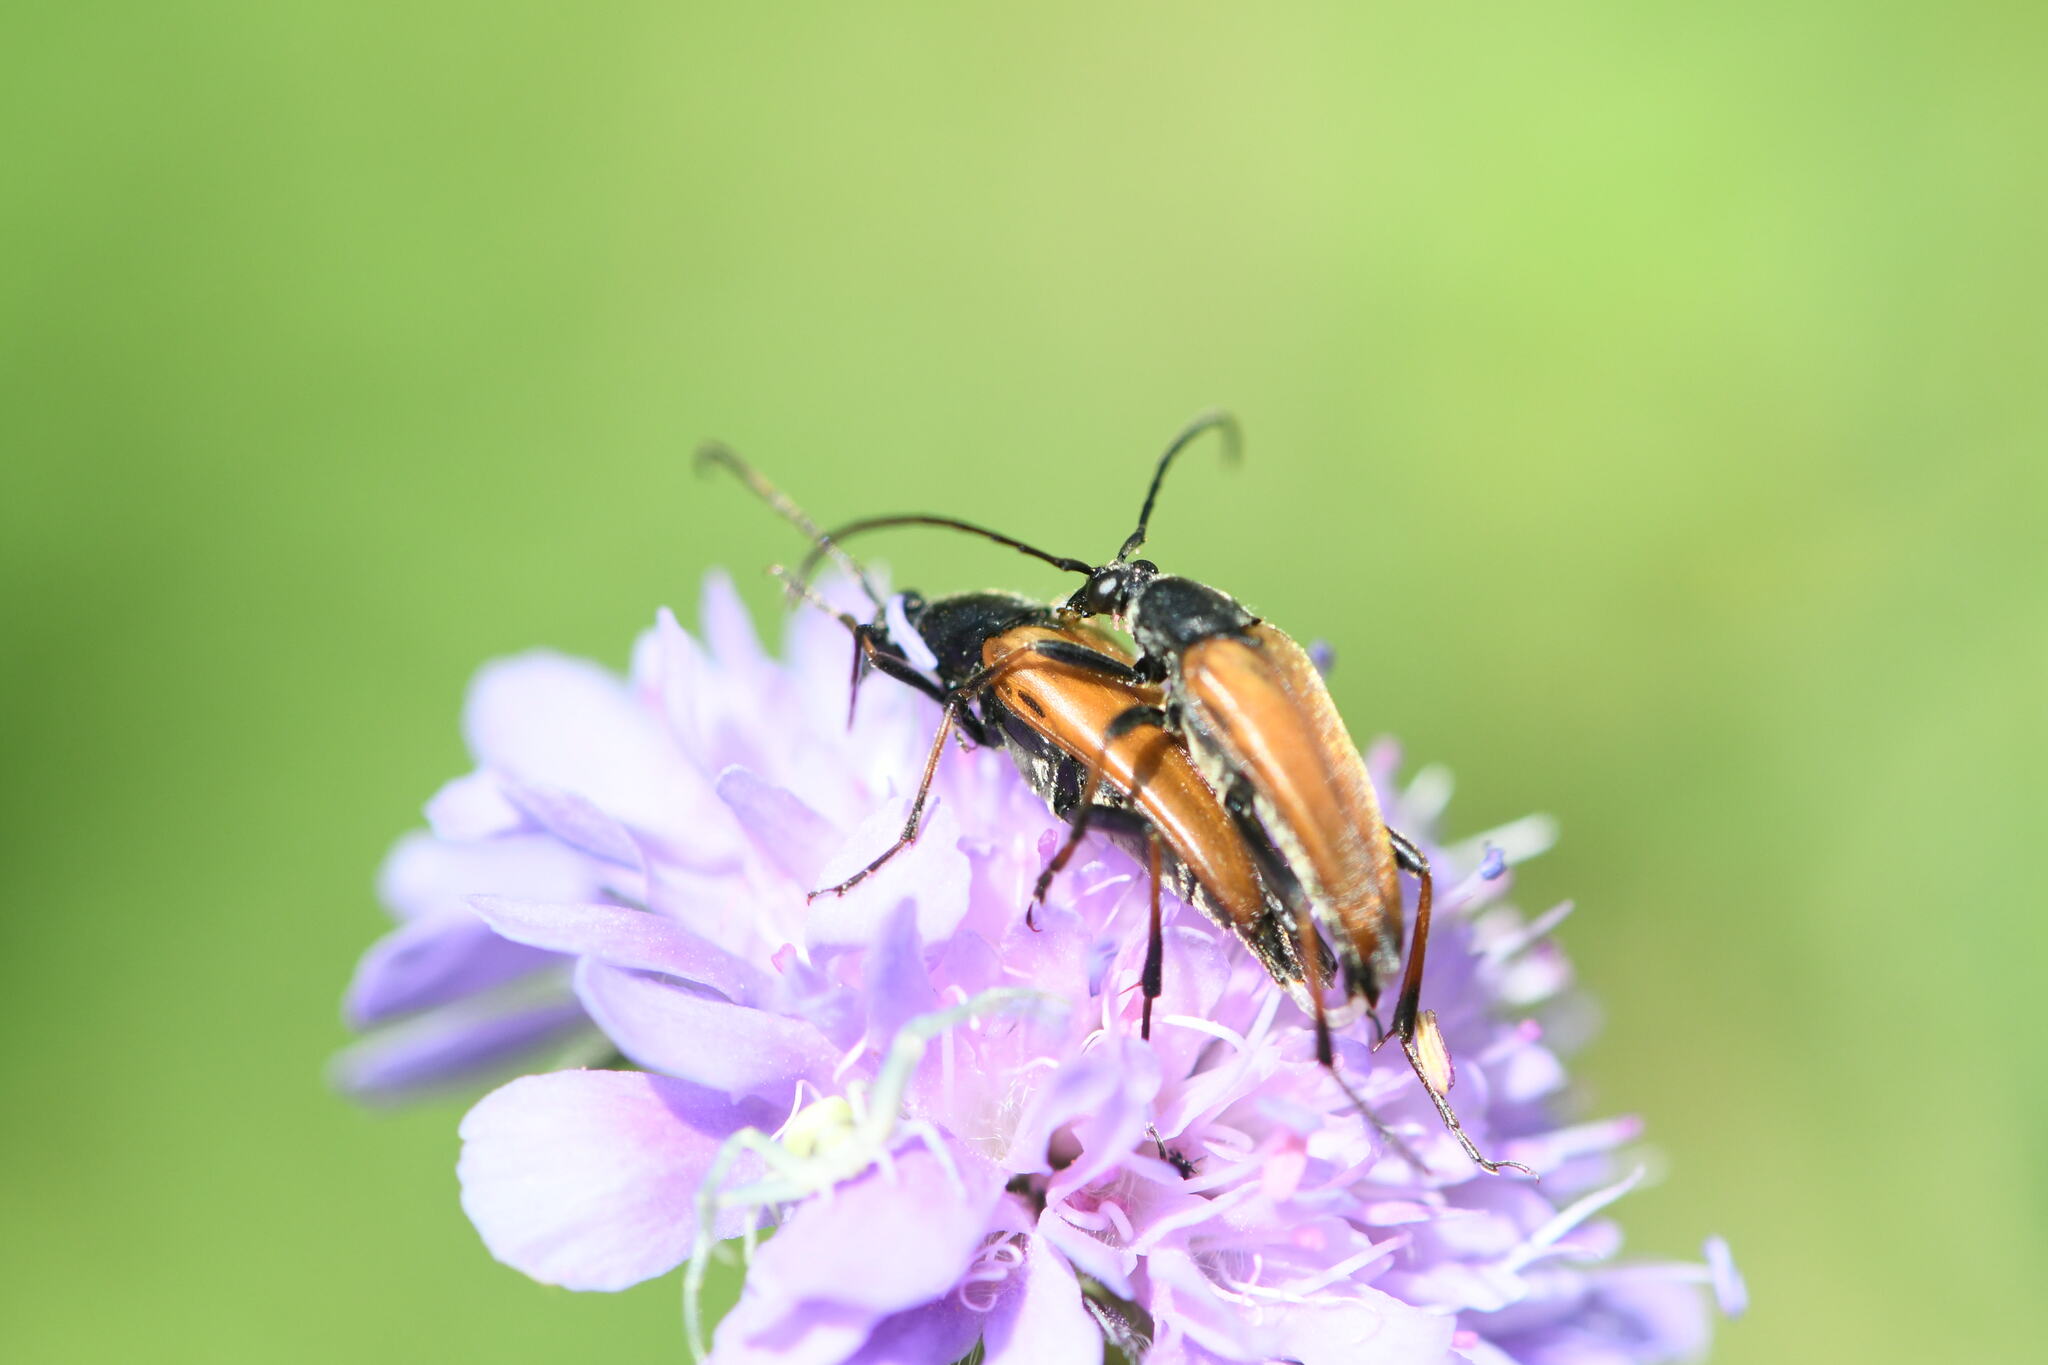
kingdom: Animalia
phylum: Arthropoda
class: Insecta
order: Coleoptera
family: Cerambycidae
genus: Etorofus
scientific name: Etorofus pubescens
